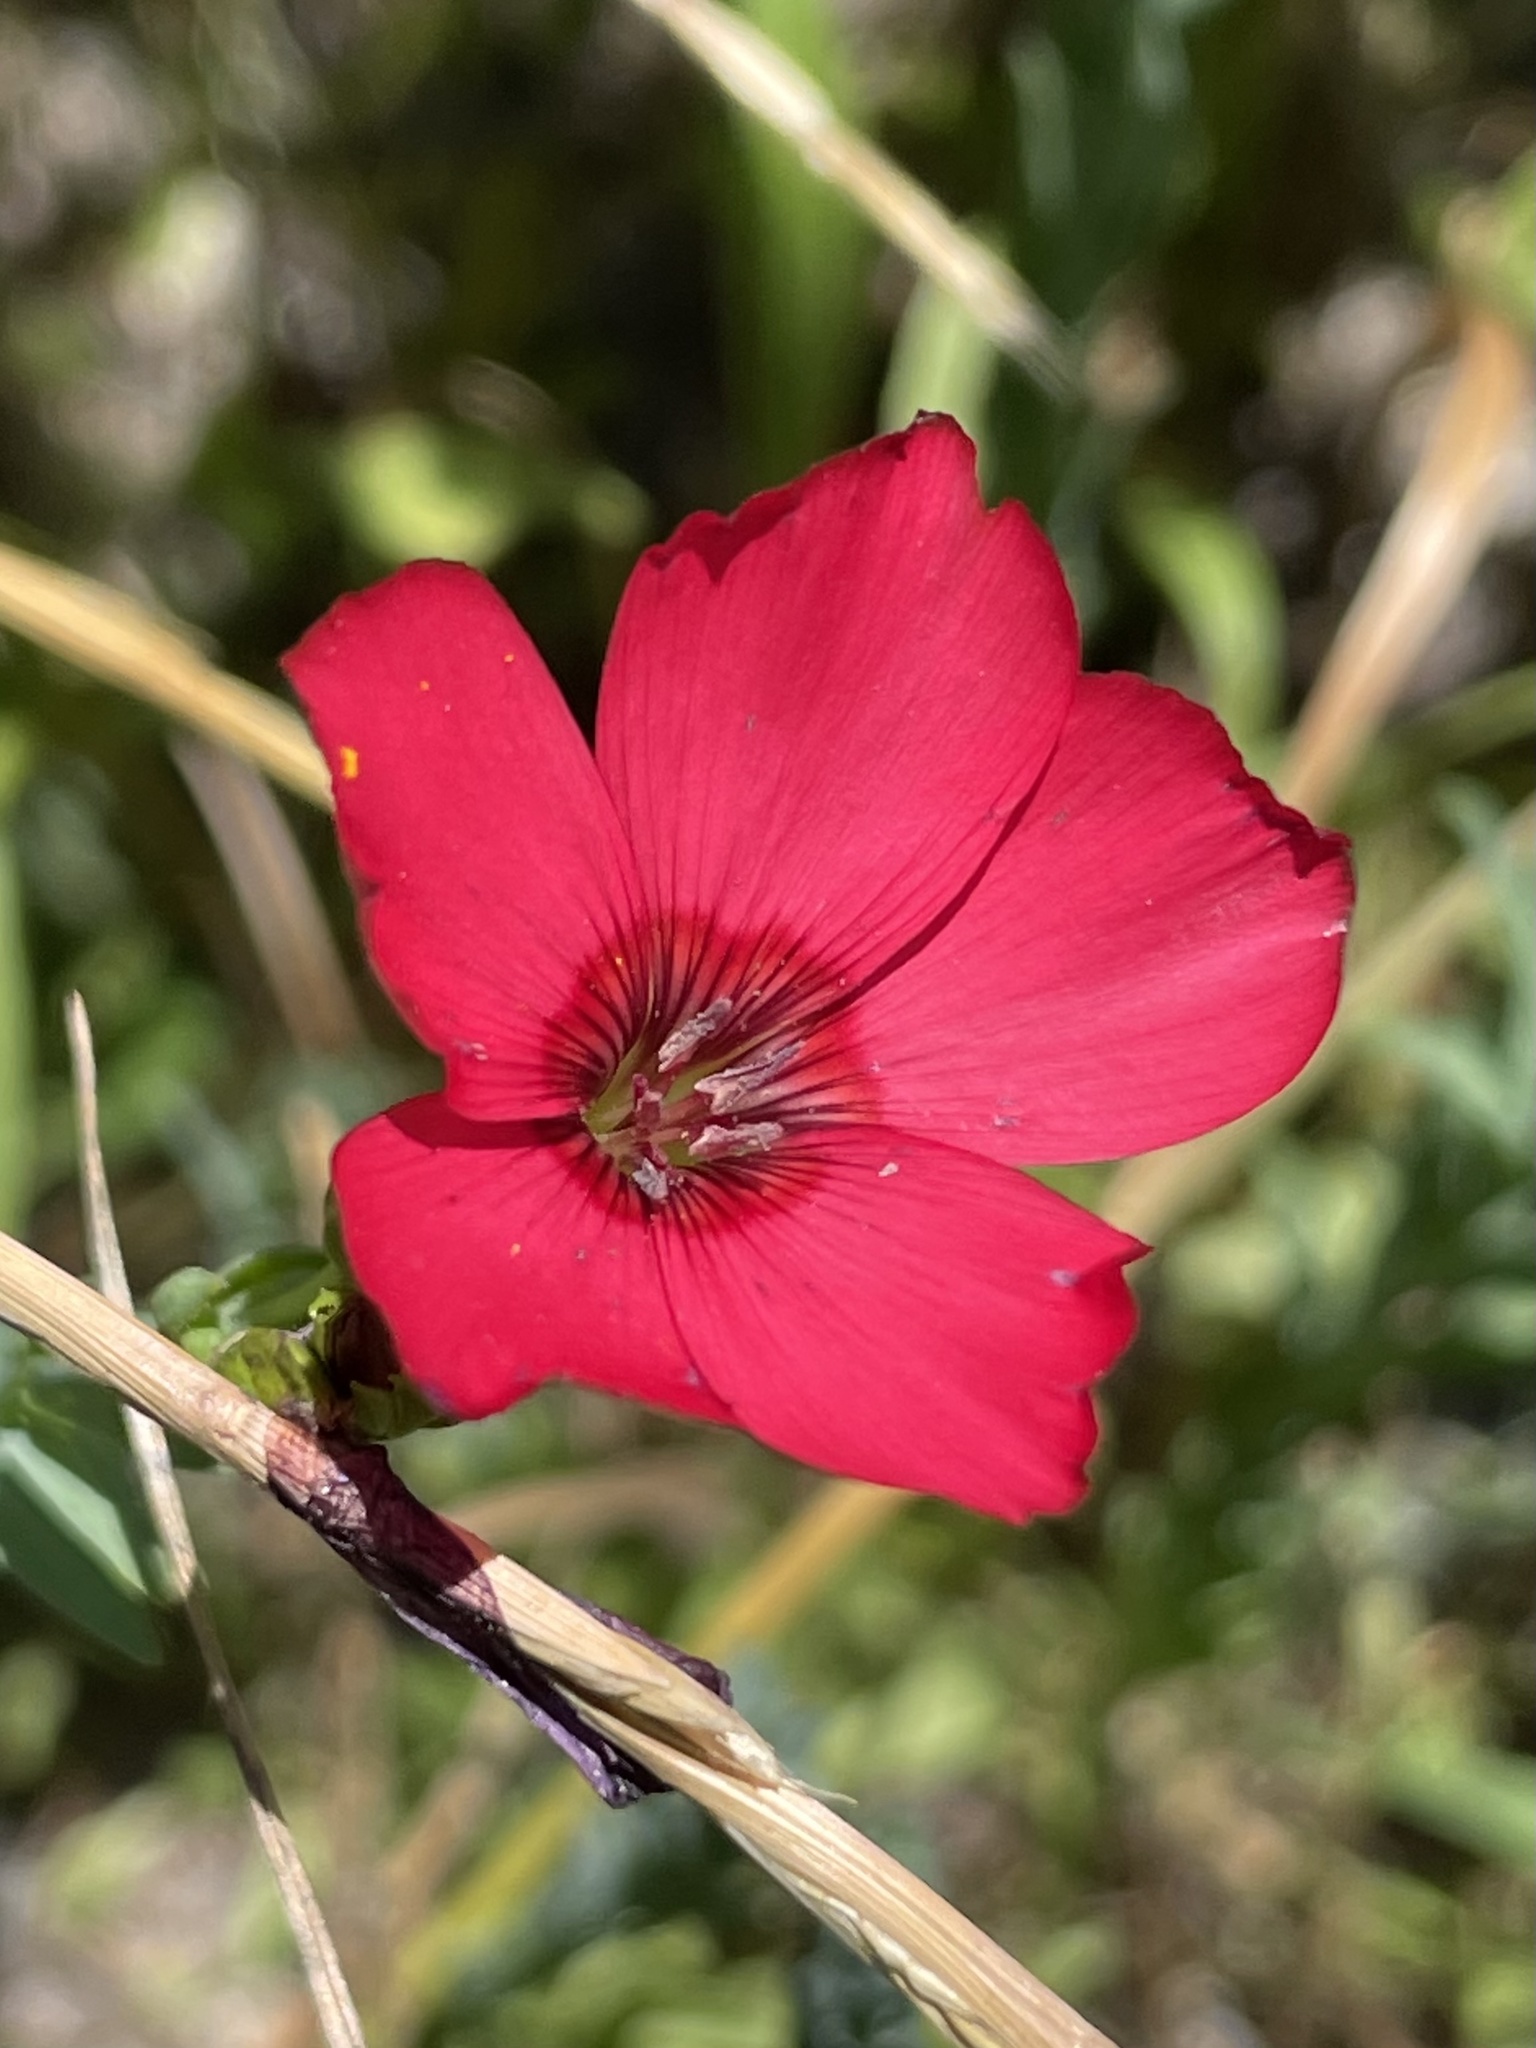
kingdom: Plantae
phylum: Tracheophyta
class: Magnoliopsida
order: Malpighiales
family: Linaceae
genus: Linum
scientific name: Linum grandiflorum
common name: Crimson flax
